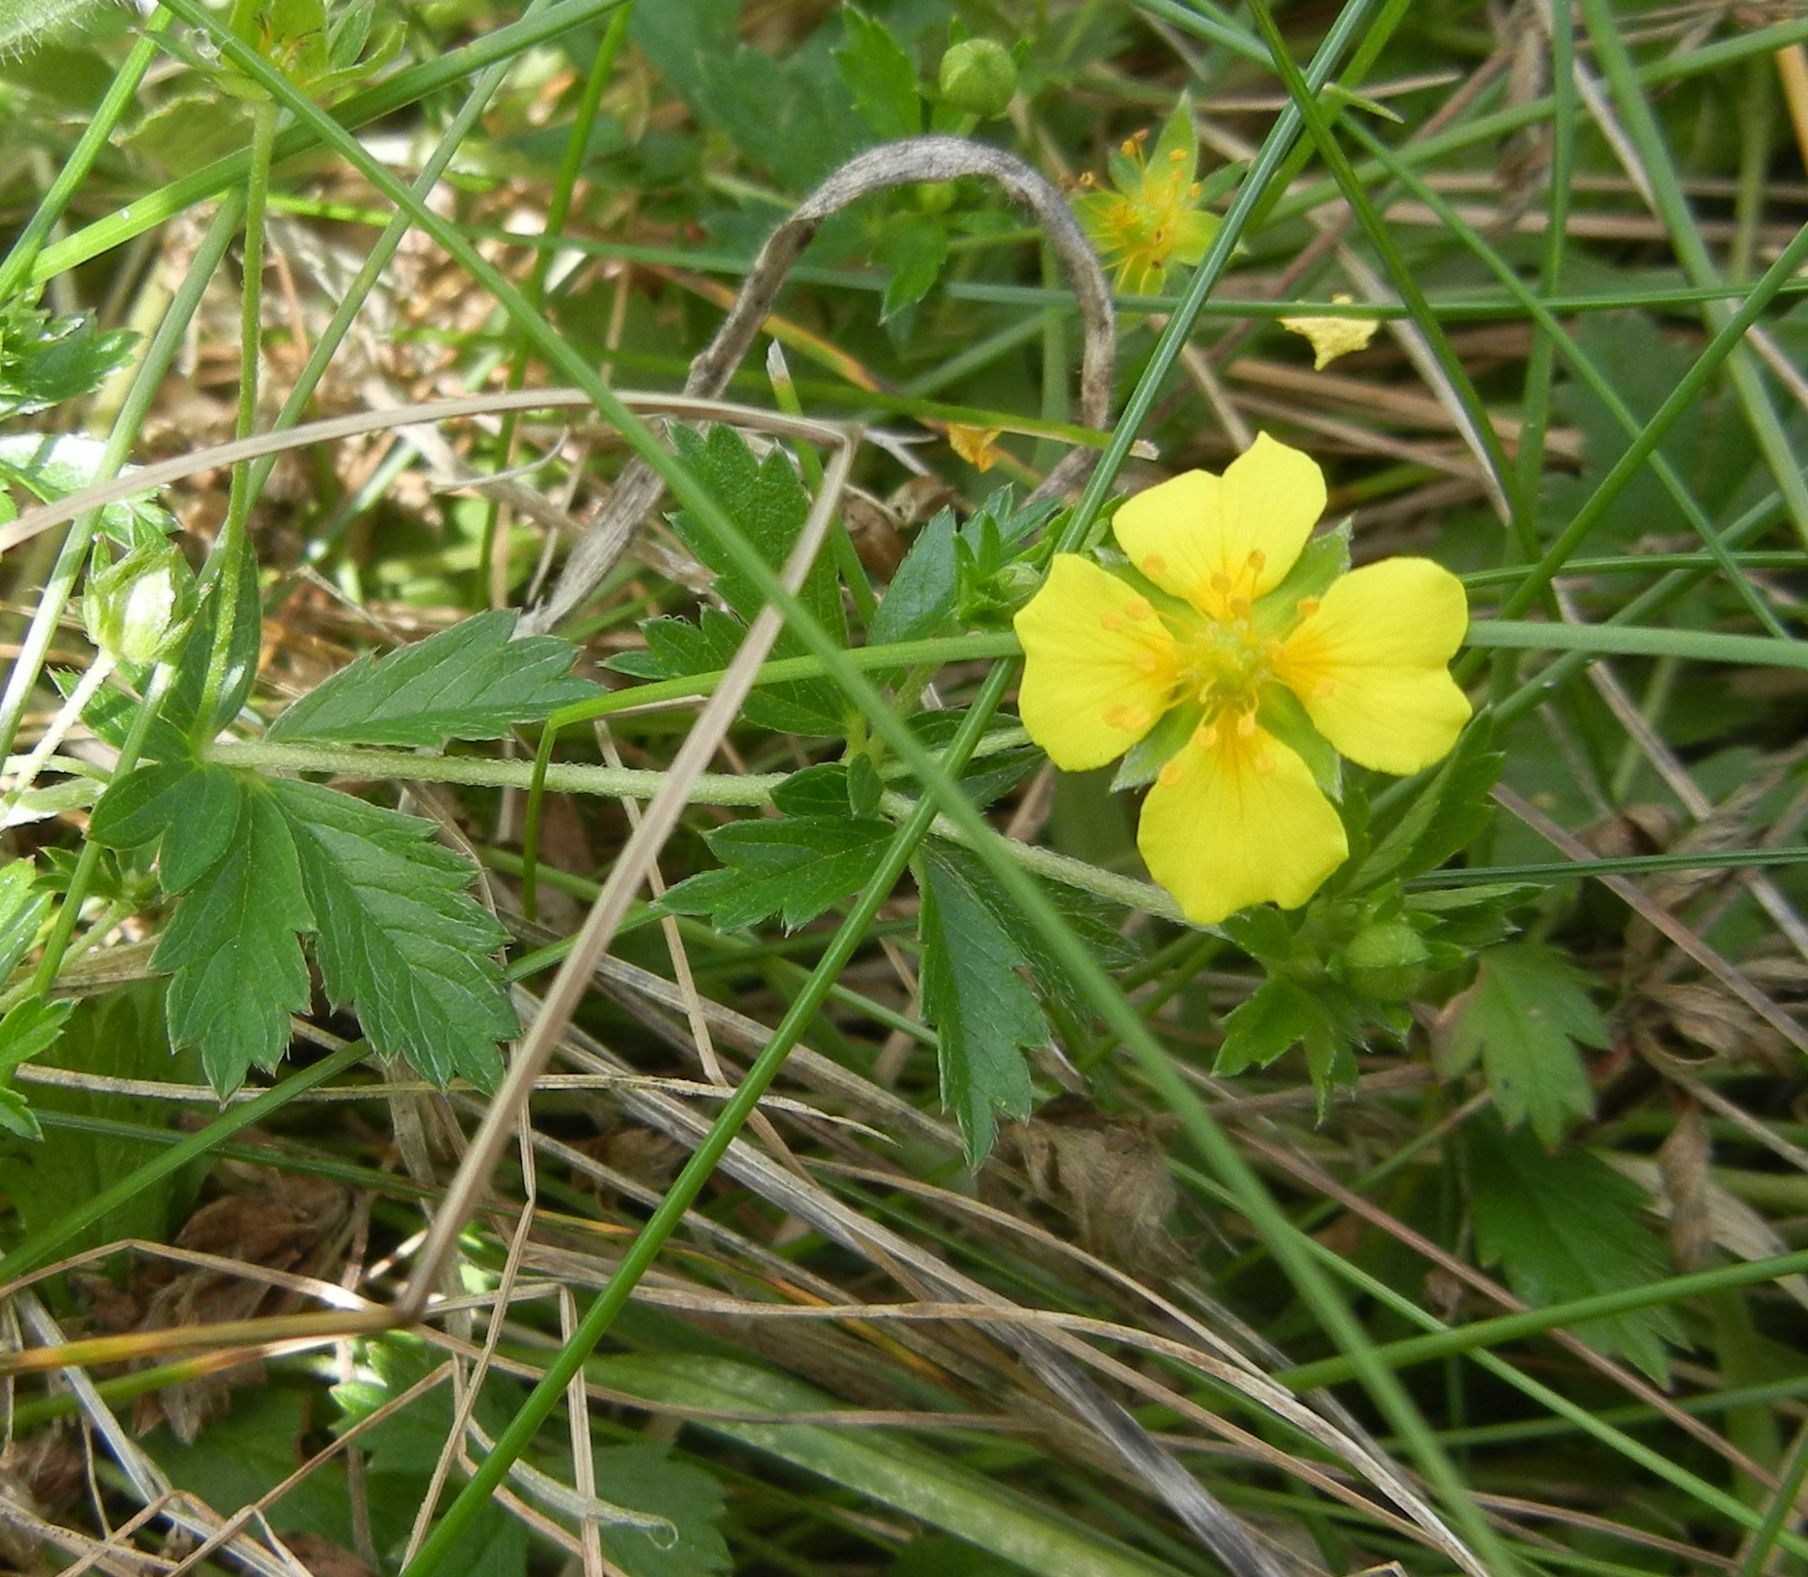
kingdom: Plantae
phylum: Tracheophyta
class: Magnoliopsida
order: Rosales
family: Rosaceae
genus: Potentilla
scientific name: Potentilla erecta
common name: Tormentil
